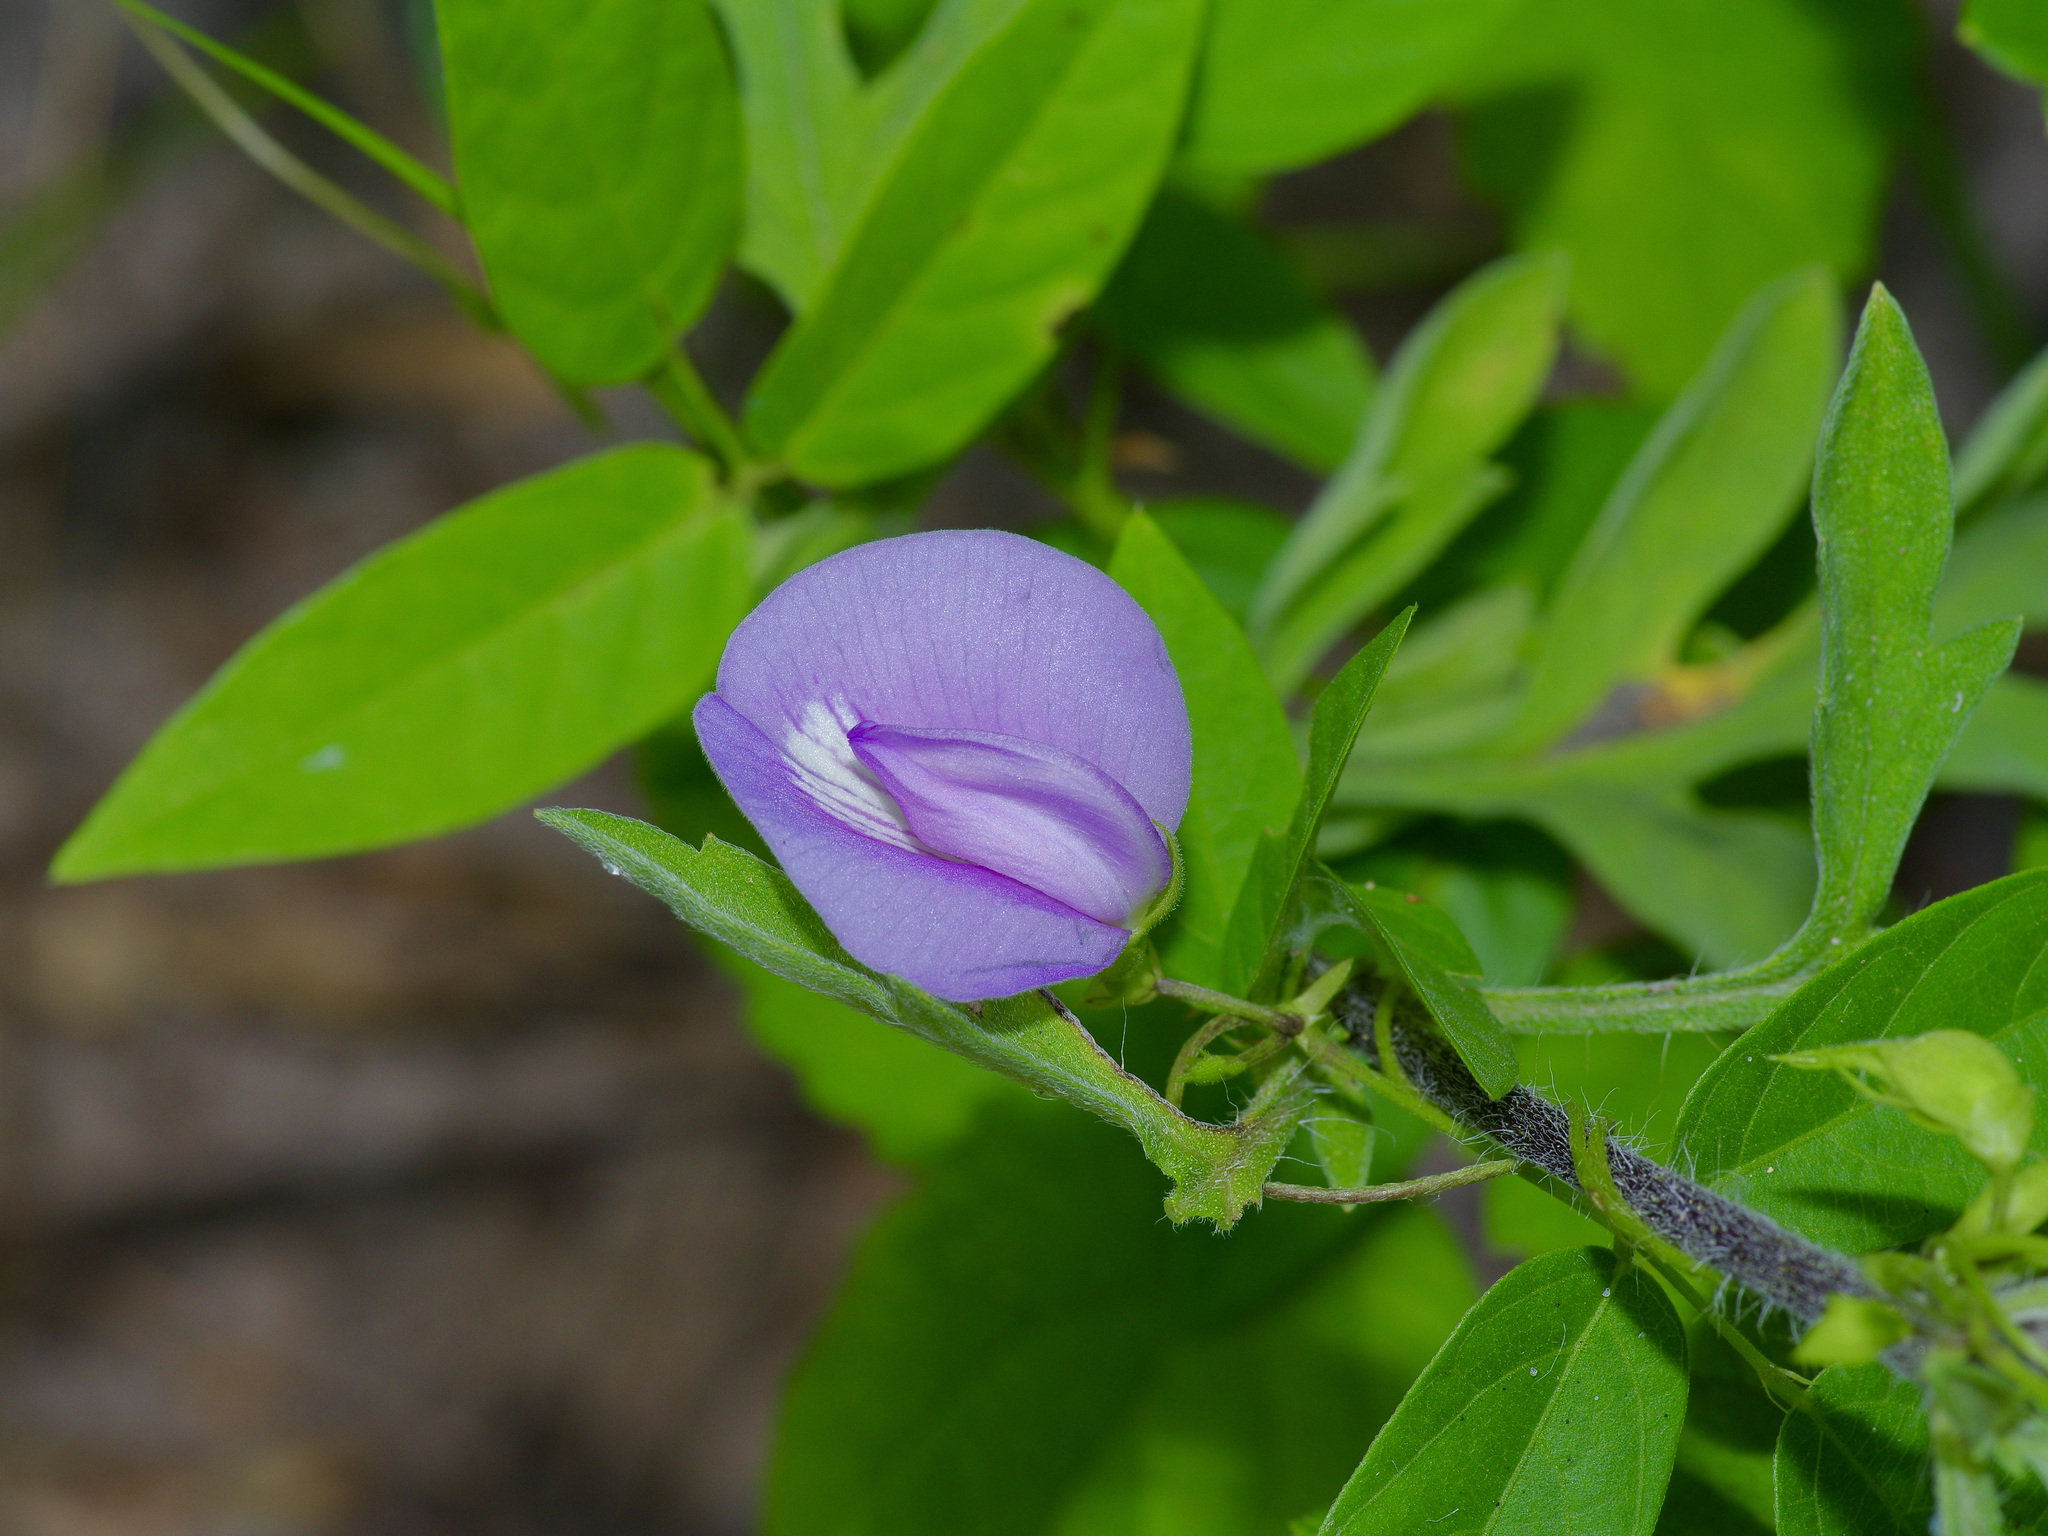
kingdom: Plantae
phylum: Tracheophyta
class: Magnoliopsida
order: Fabales
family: Fabaceae
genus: Centrosema
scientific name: Centrosema virginianum
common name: Butterfly-pea
